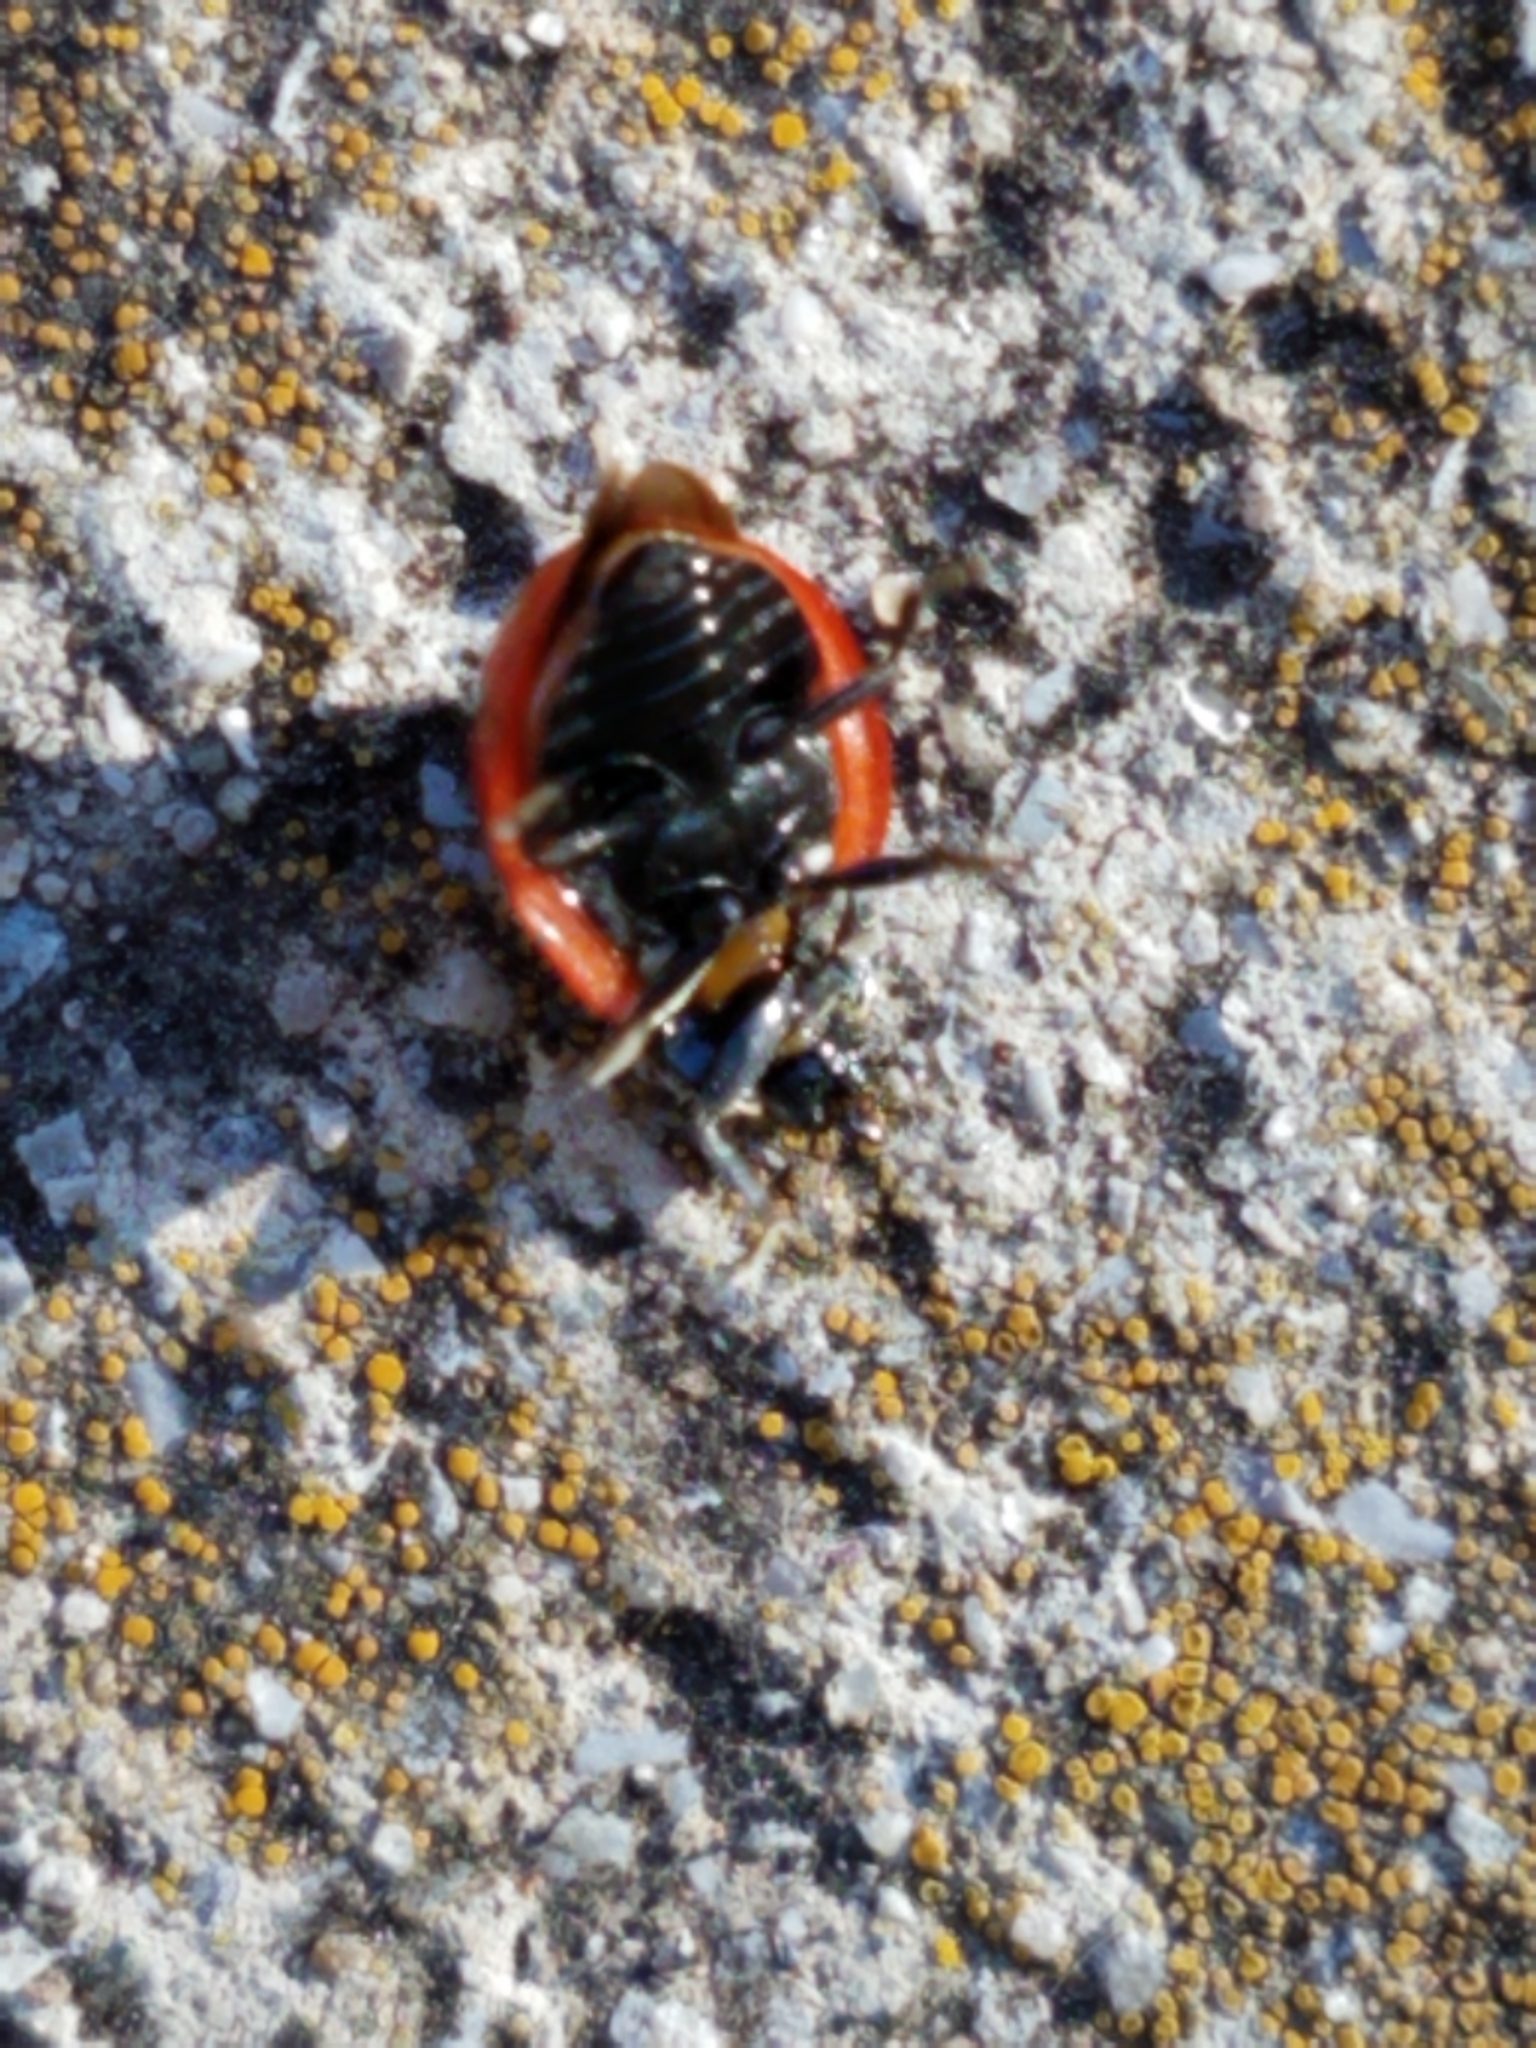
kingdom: Animalia
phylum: Arthropoda
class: Insecta
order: Coleoptera
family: Coccinellidae
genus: Coccinella
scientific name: Coccinella septempunctata
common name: Sevenspotted lady beetle
